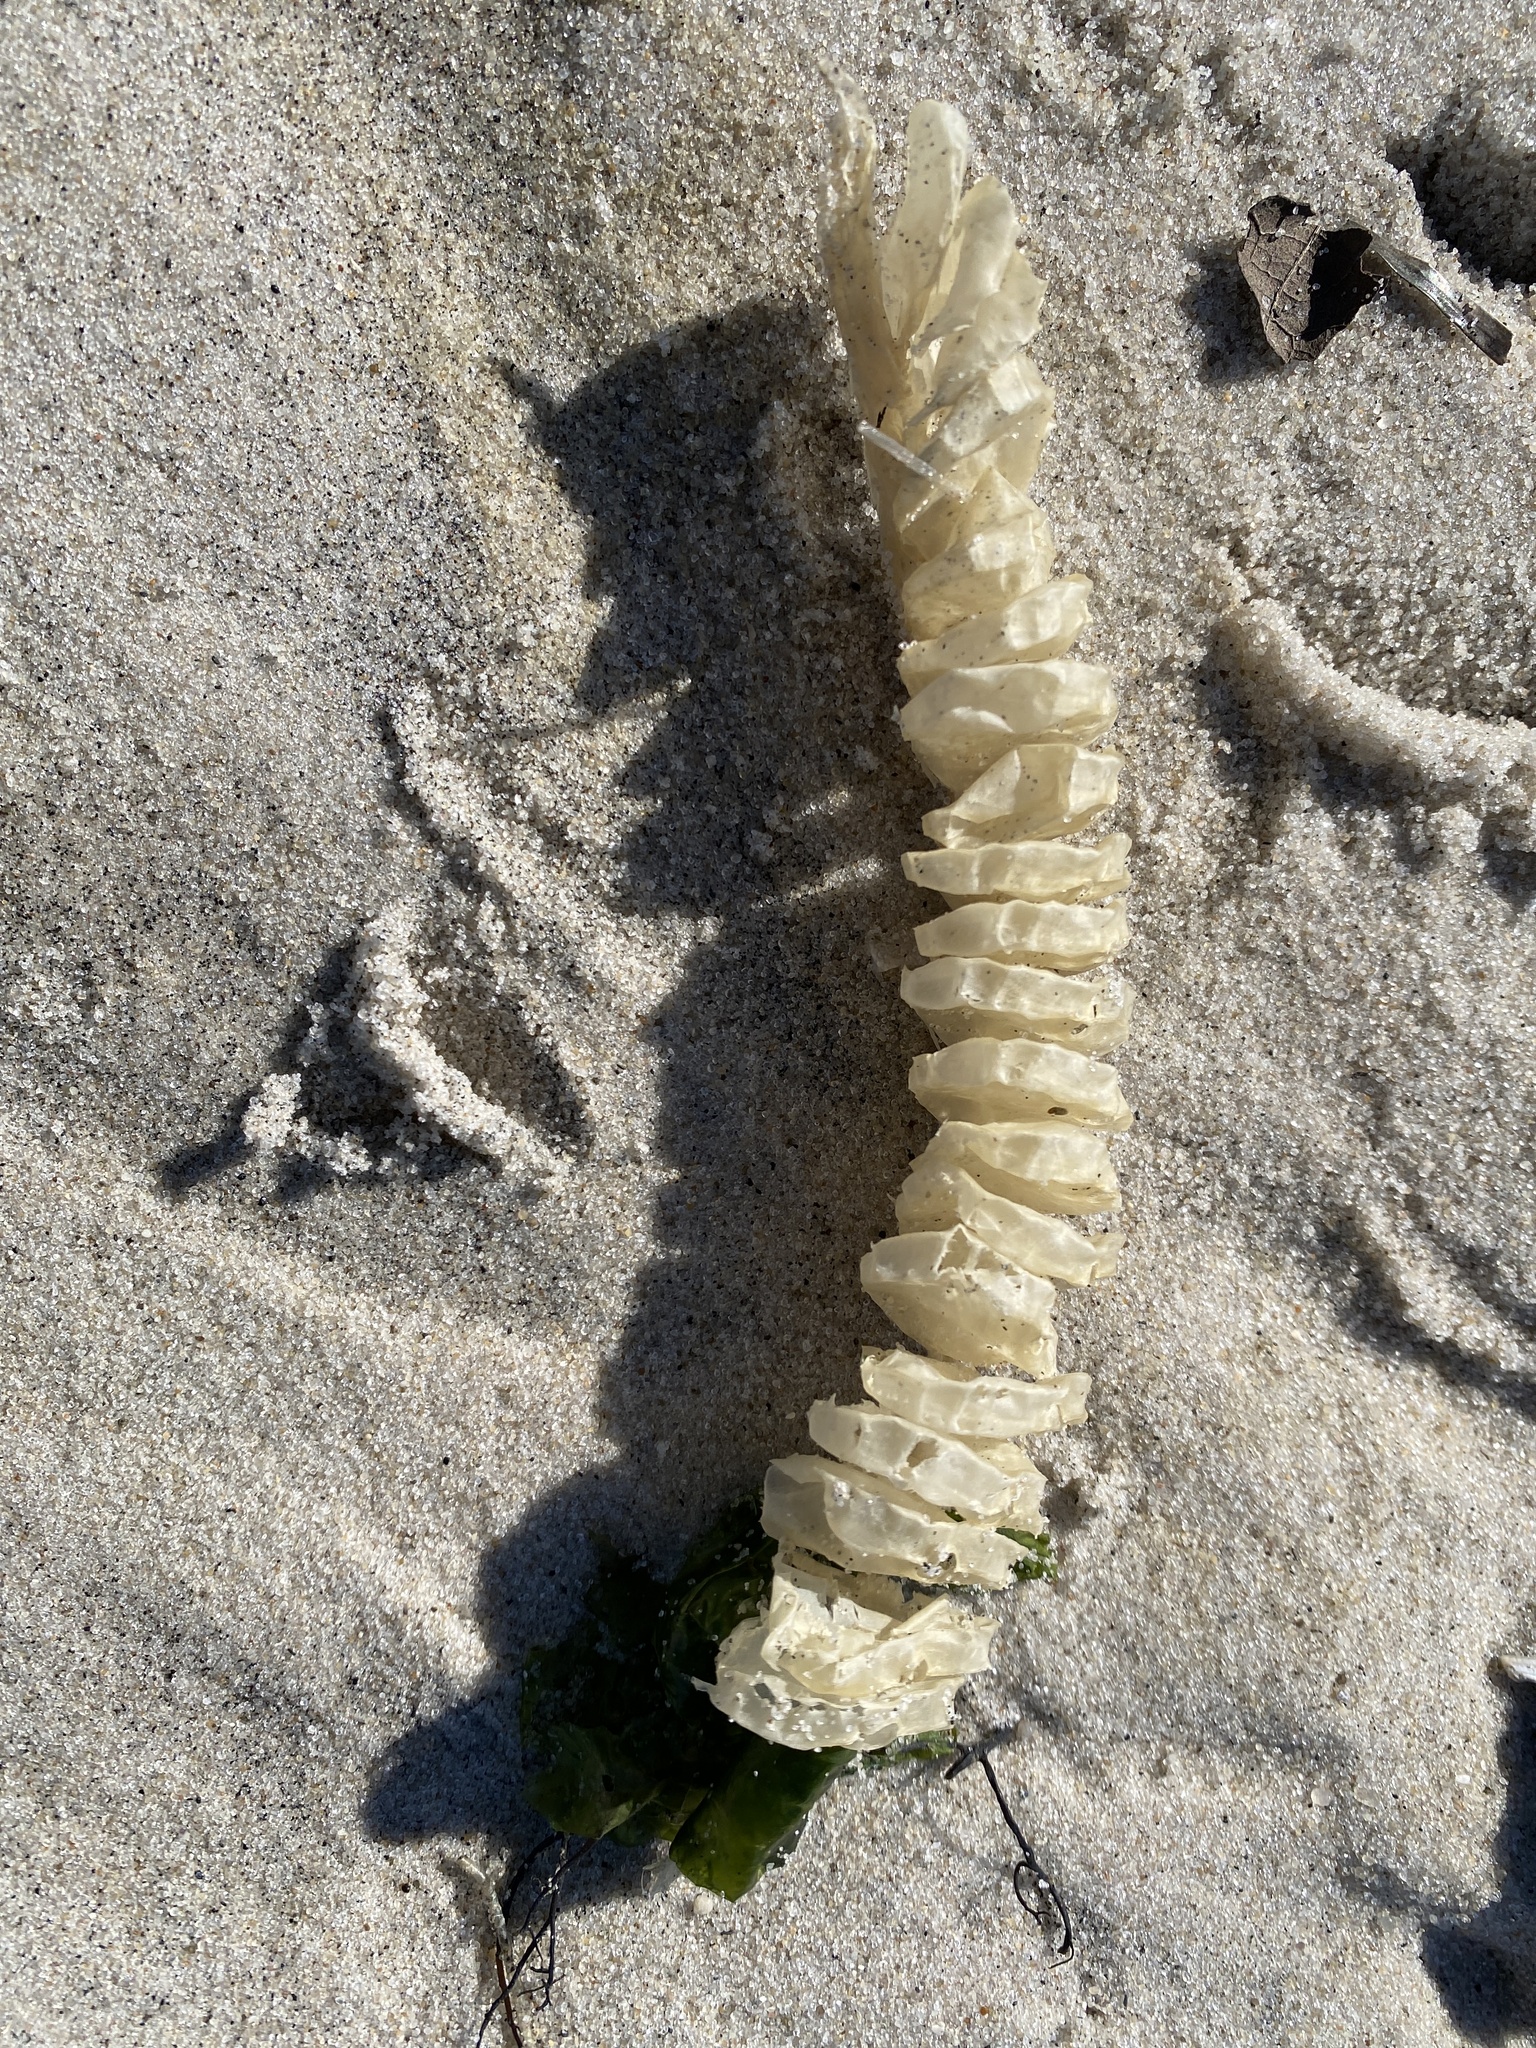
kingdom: Animalia
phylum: Mollusca
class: Gastropoda
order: Neogastropoda
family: Busyconidae
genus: Busycotypus
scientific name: Busycotypus canaliculatus
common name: Channeled whelk
